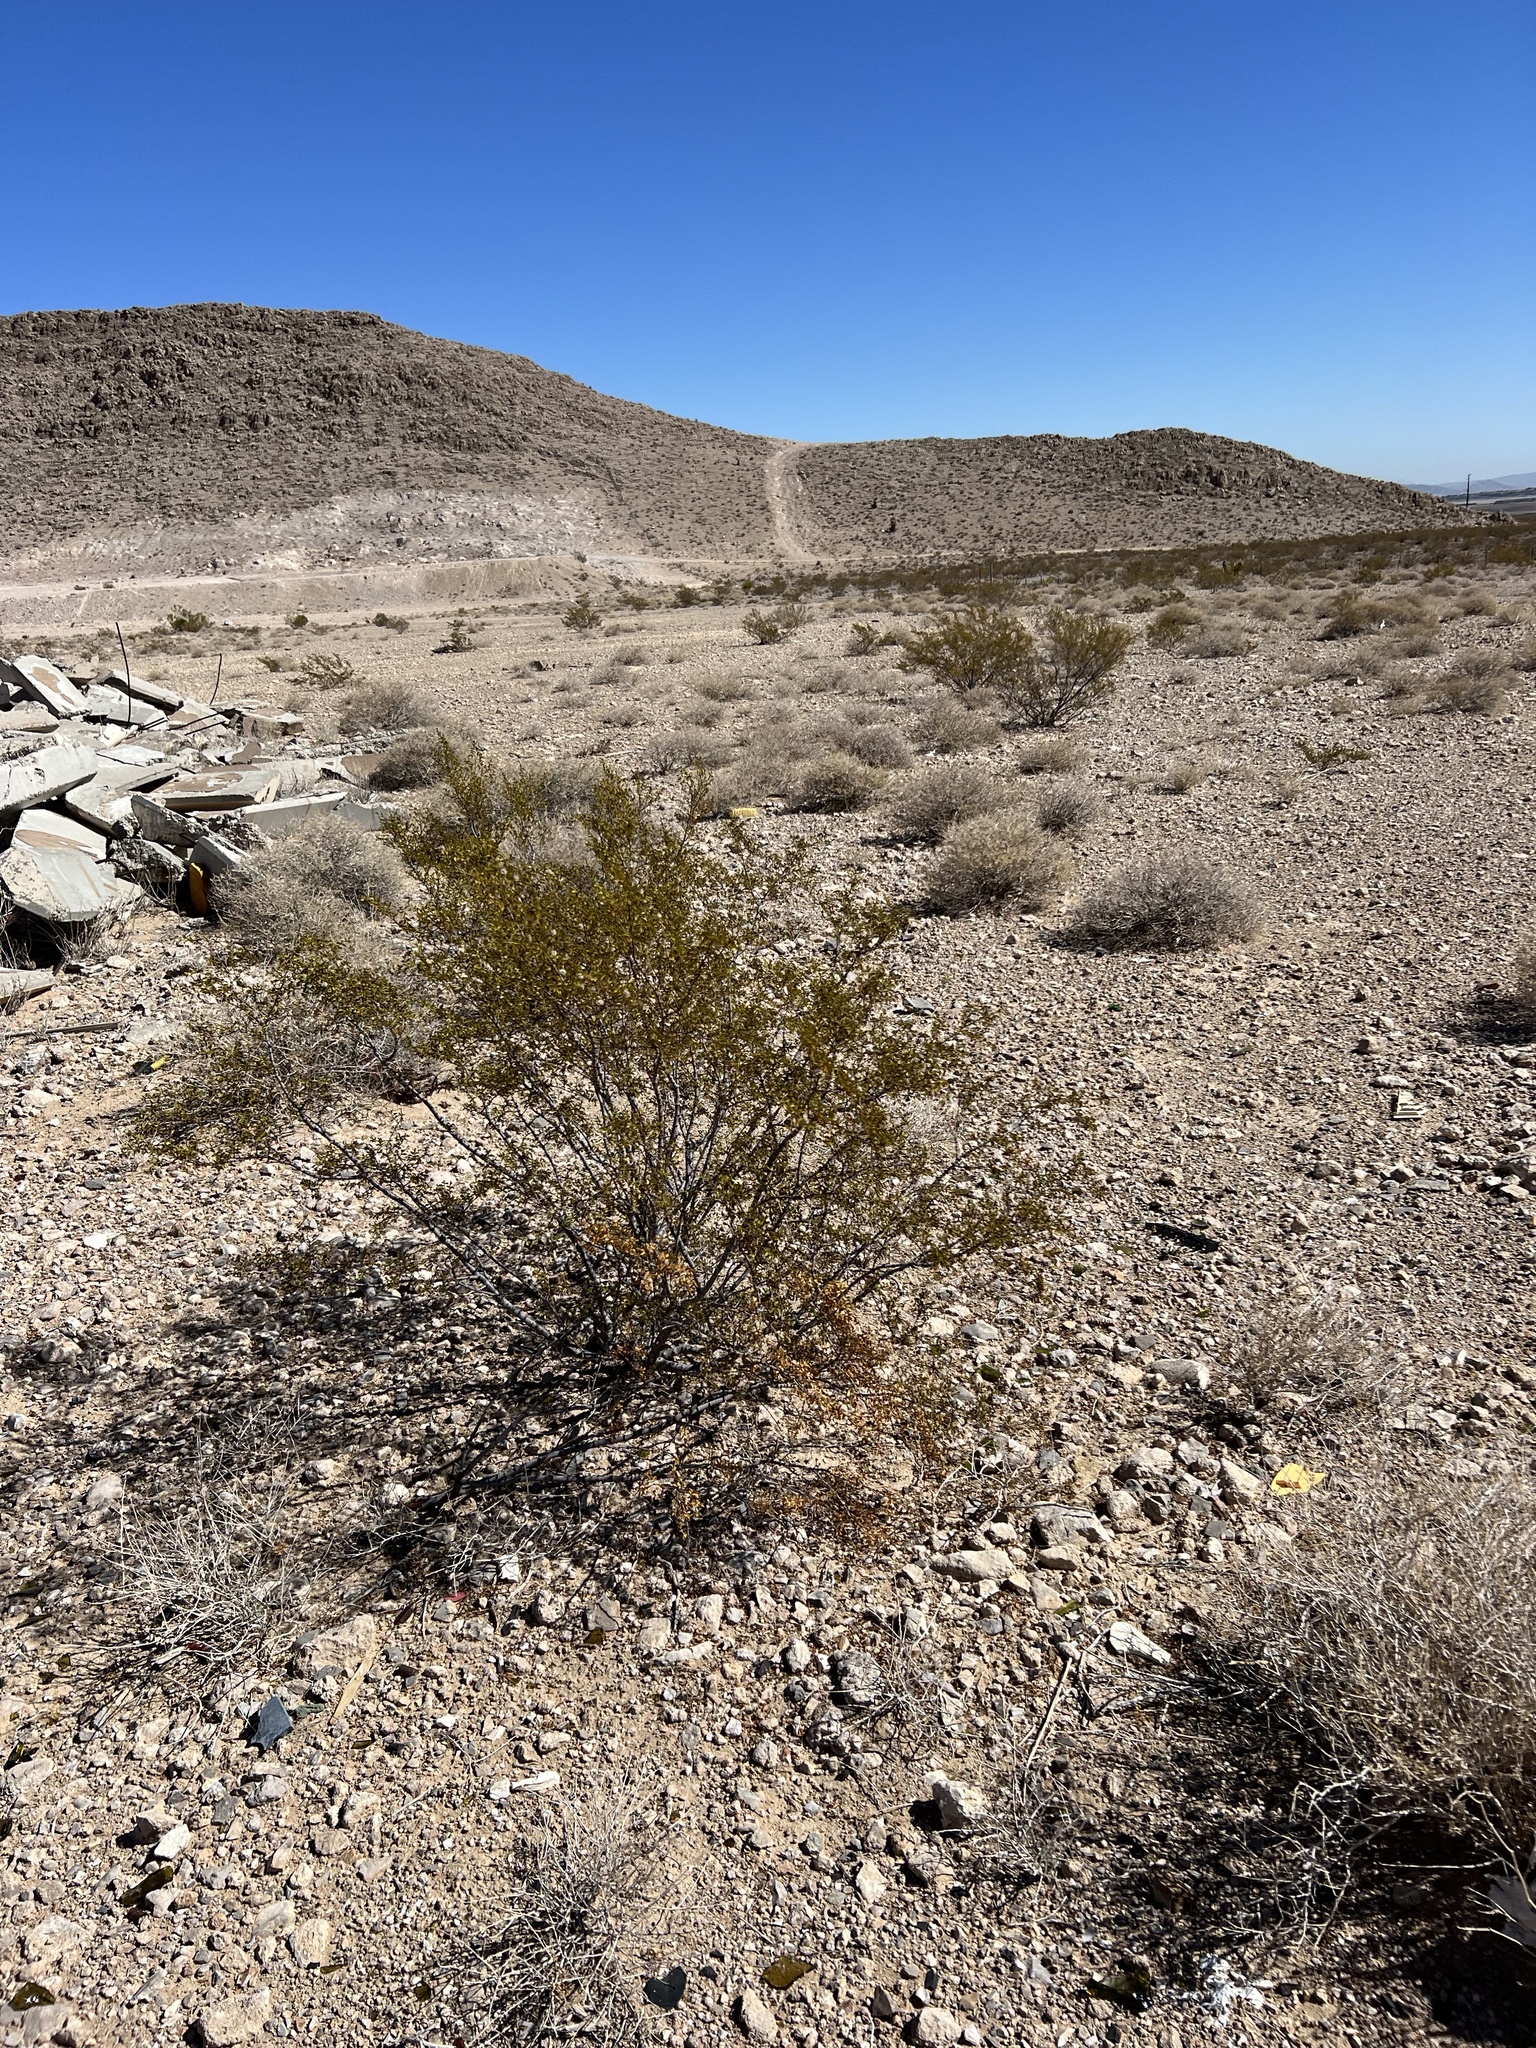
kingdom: Plantae
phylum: Tracheophyta
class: Magnoliopsida
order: Zygophyllales
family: Zygophyllaceae
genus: Larrea
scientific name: Larrea tridentata
